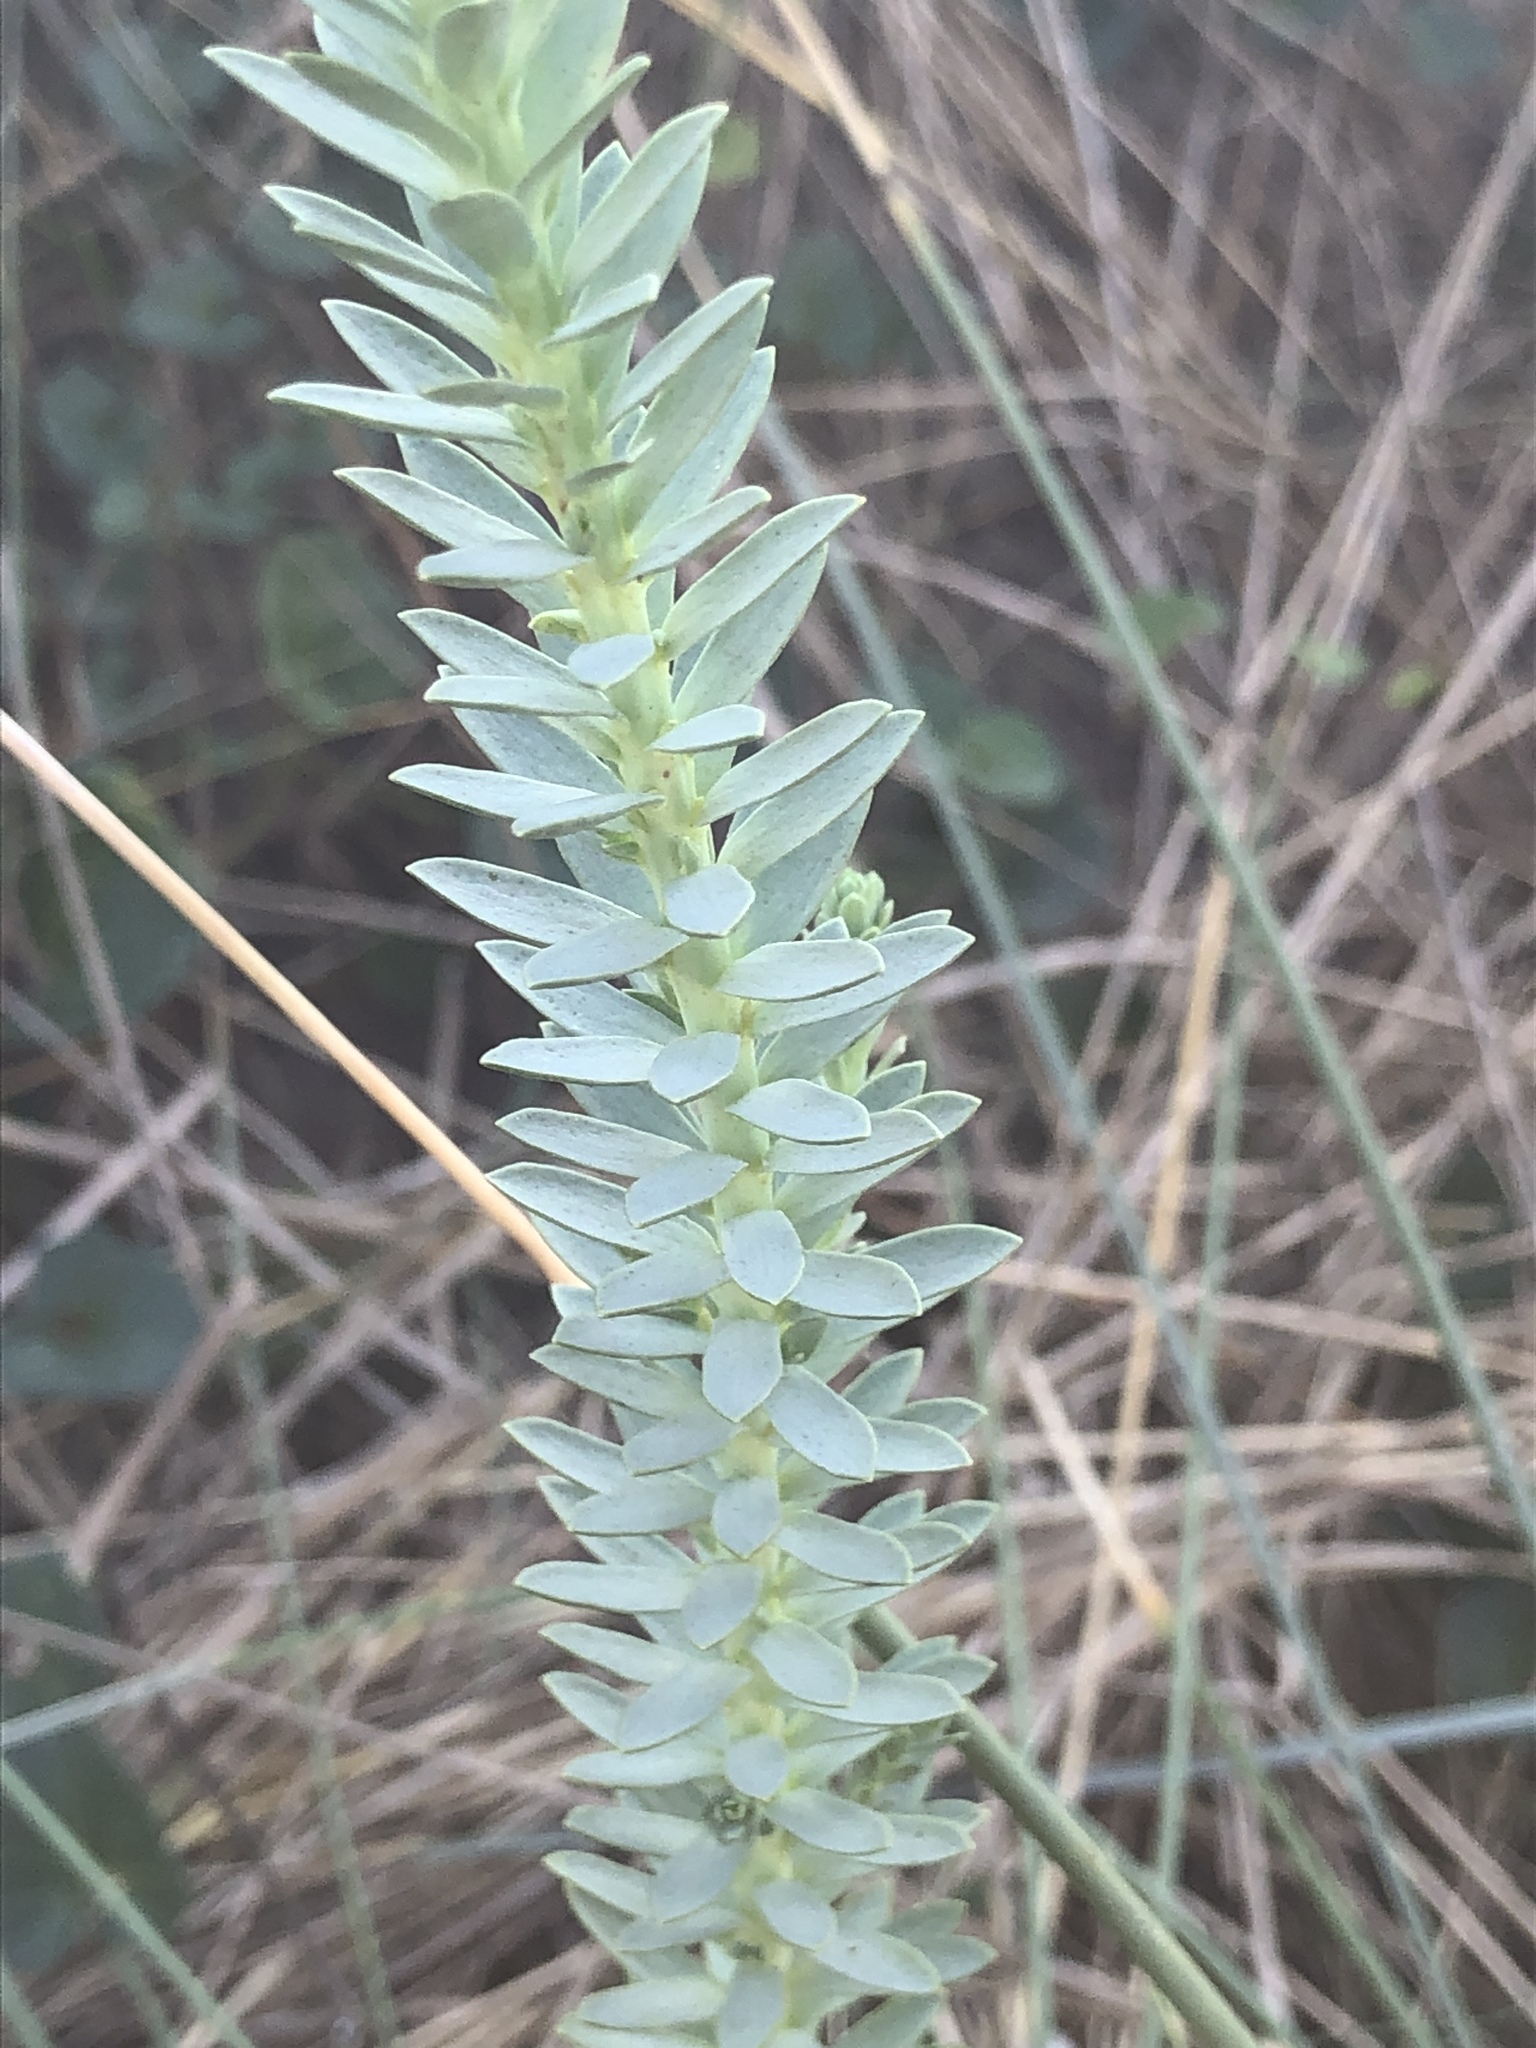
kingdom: Plantae
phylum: Tracheophyta
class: Magnoliopsida
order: Malpighiales
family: Euphorbiaceae
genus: Euphorbia
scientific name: Euphorbia paralias
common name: Sea spurge
